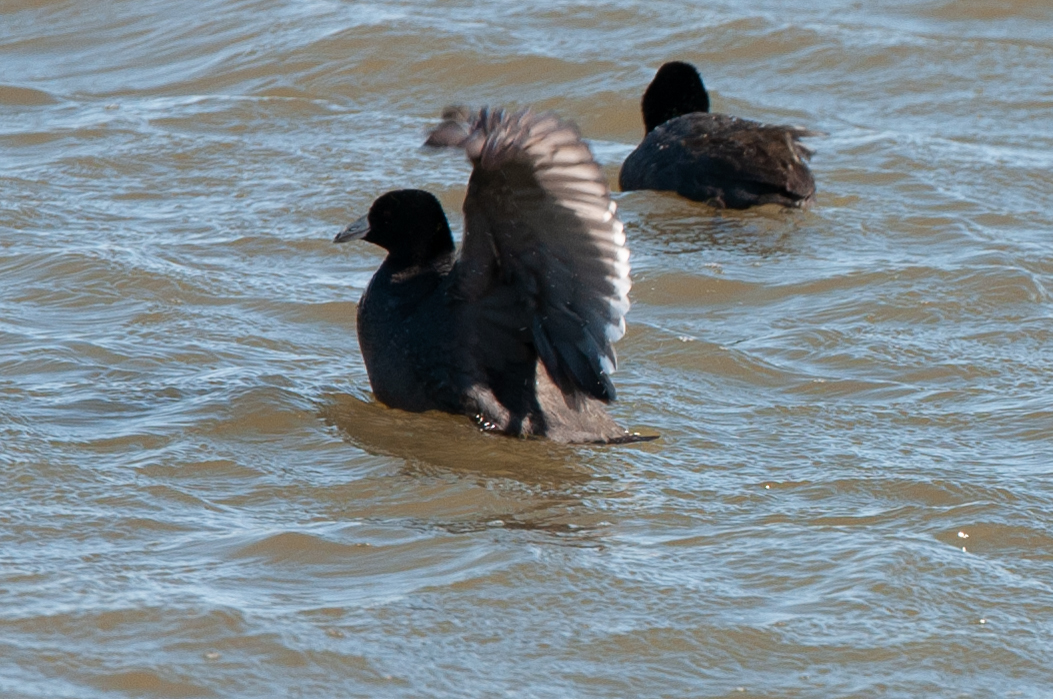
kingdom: Animalia
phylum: Chordata
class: Aves
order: Gruiformes
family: Rallidae
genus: Fulica
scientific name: Fulica americana
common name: American coot
